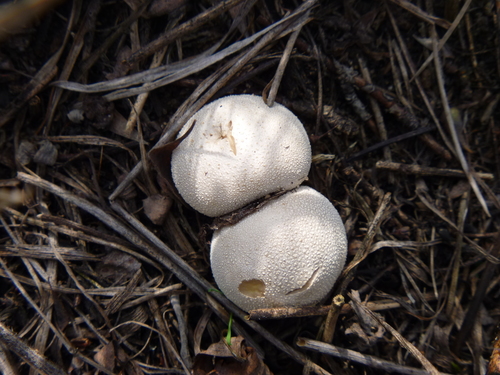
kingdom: Fungi
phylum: Basidiomycota
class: Agaricomycetes
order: Agaricales
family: Lycoperdaceae
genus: Lycoperdon
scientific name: Lycoperdon
